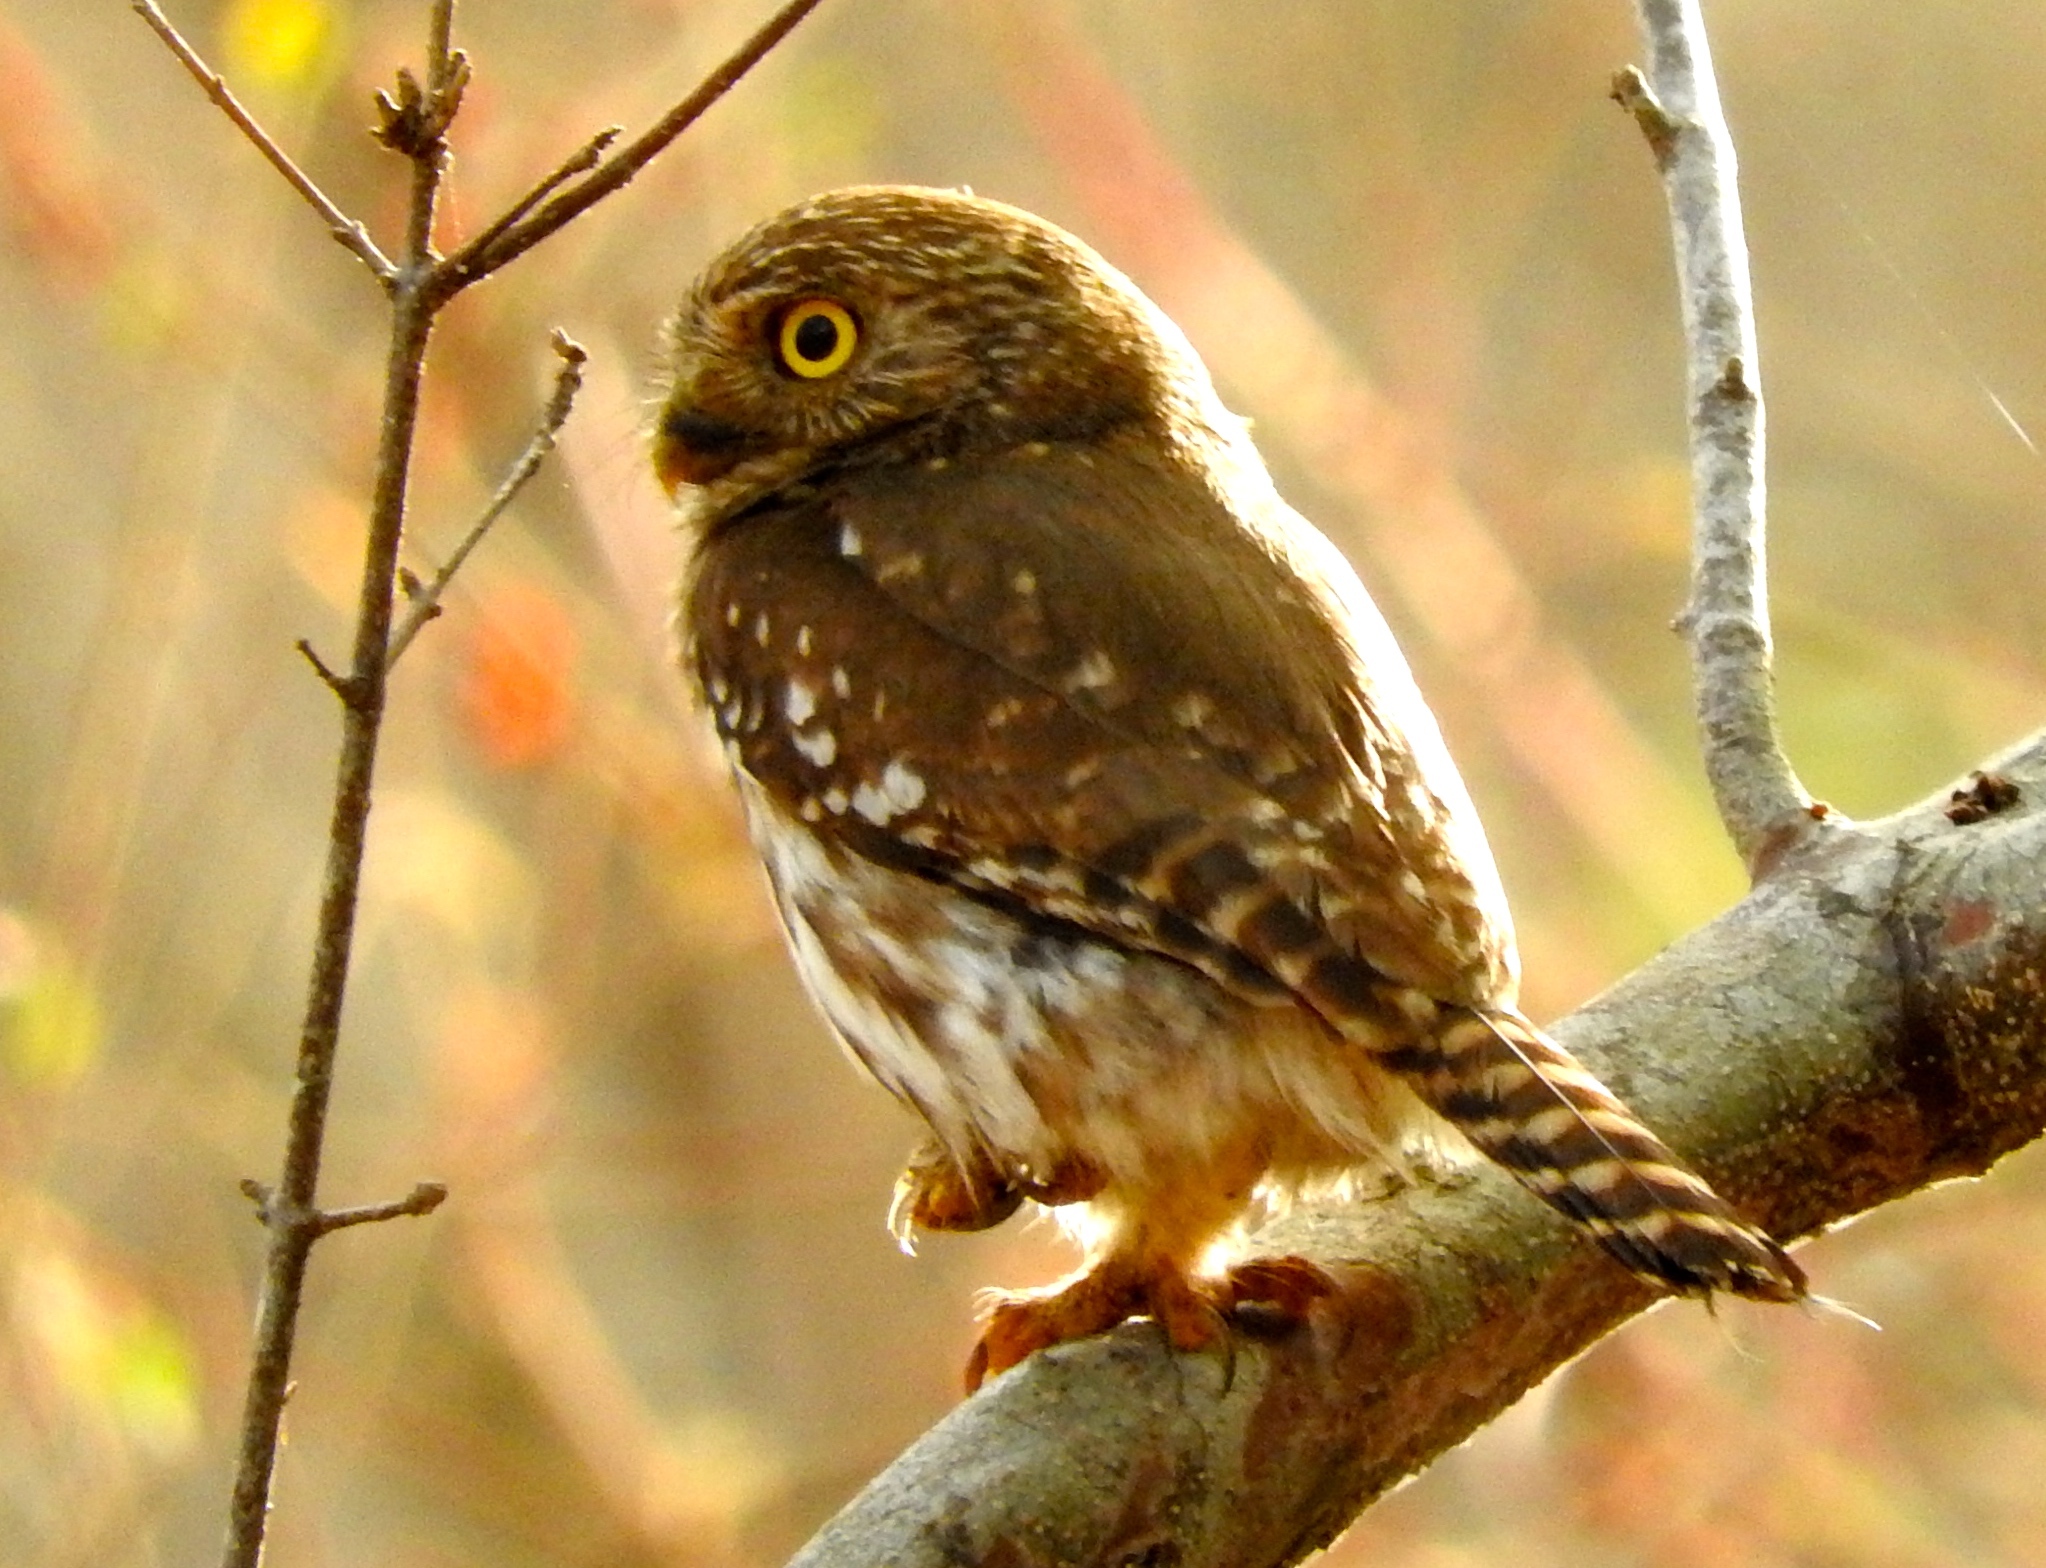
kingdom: Animalia
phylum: Chordata
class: Aves
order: Strigiformes
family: Strigidae
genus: Glaucidium
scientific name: Glaucidium brasilianum
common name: Ferruginous pygmy-owl
